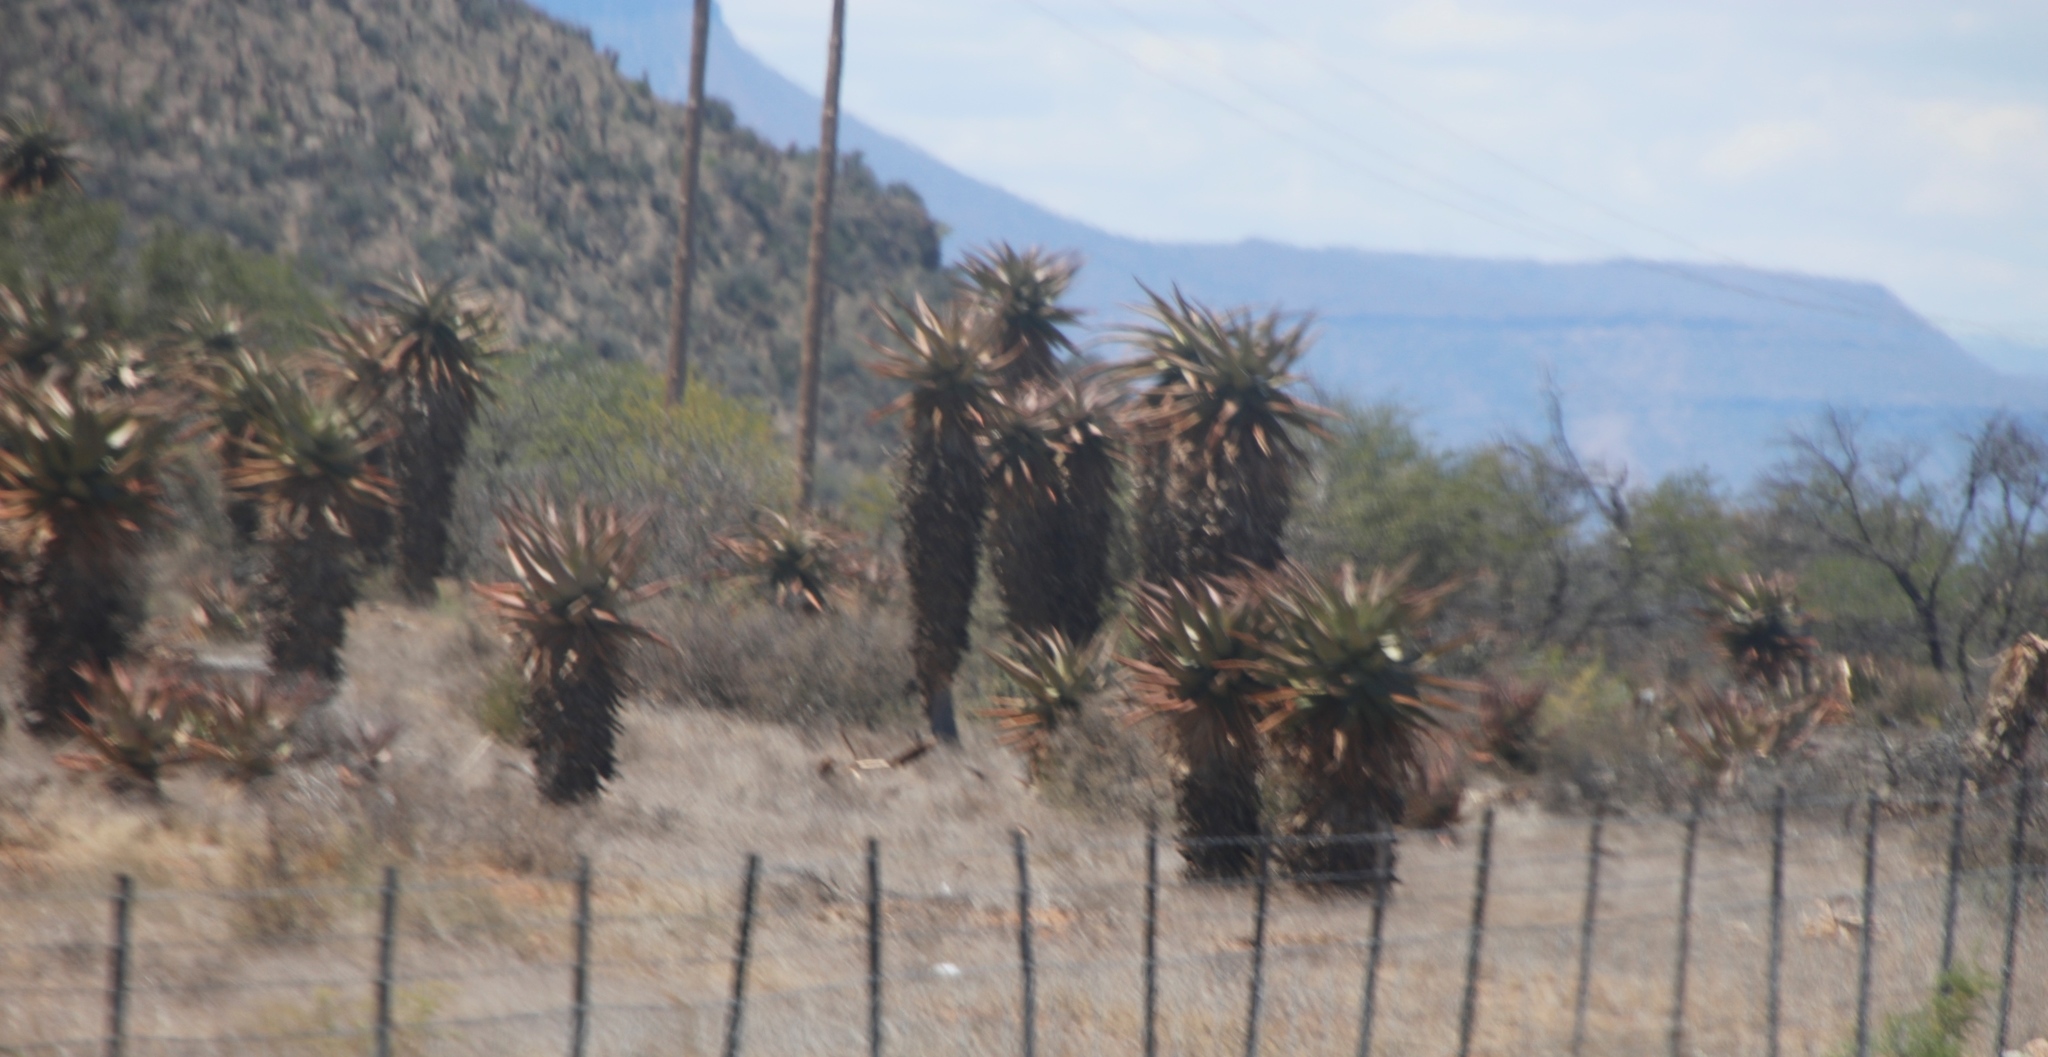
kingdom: Plantae
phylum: Tracheophyta
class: Liliopsida
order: Asparagales
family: Asphodelaceae
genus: Aloe
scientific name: Aloe ferox
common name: Bitter aloe
